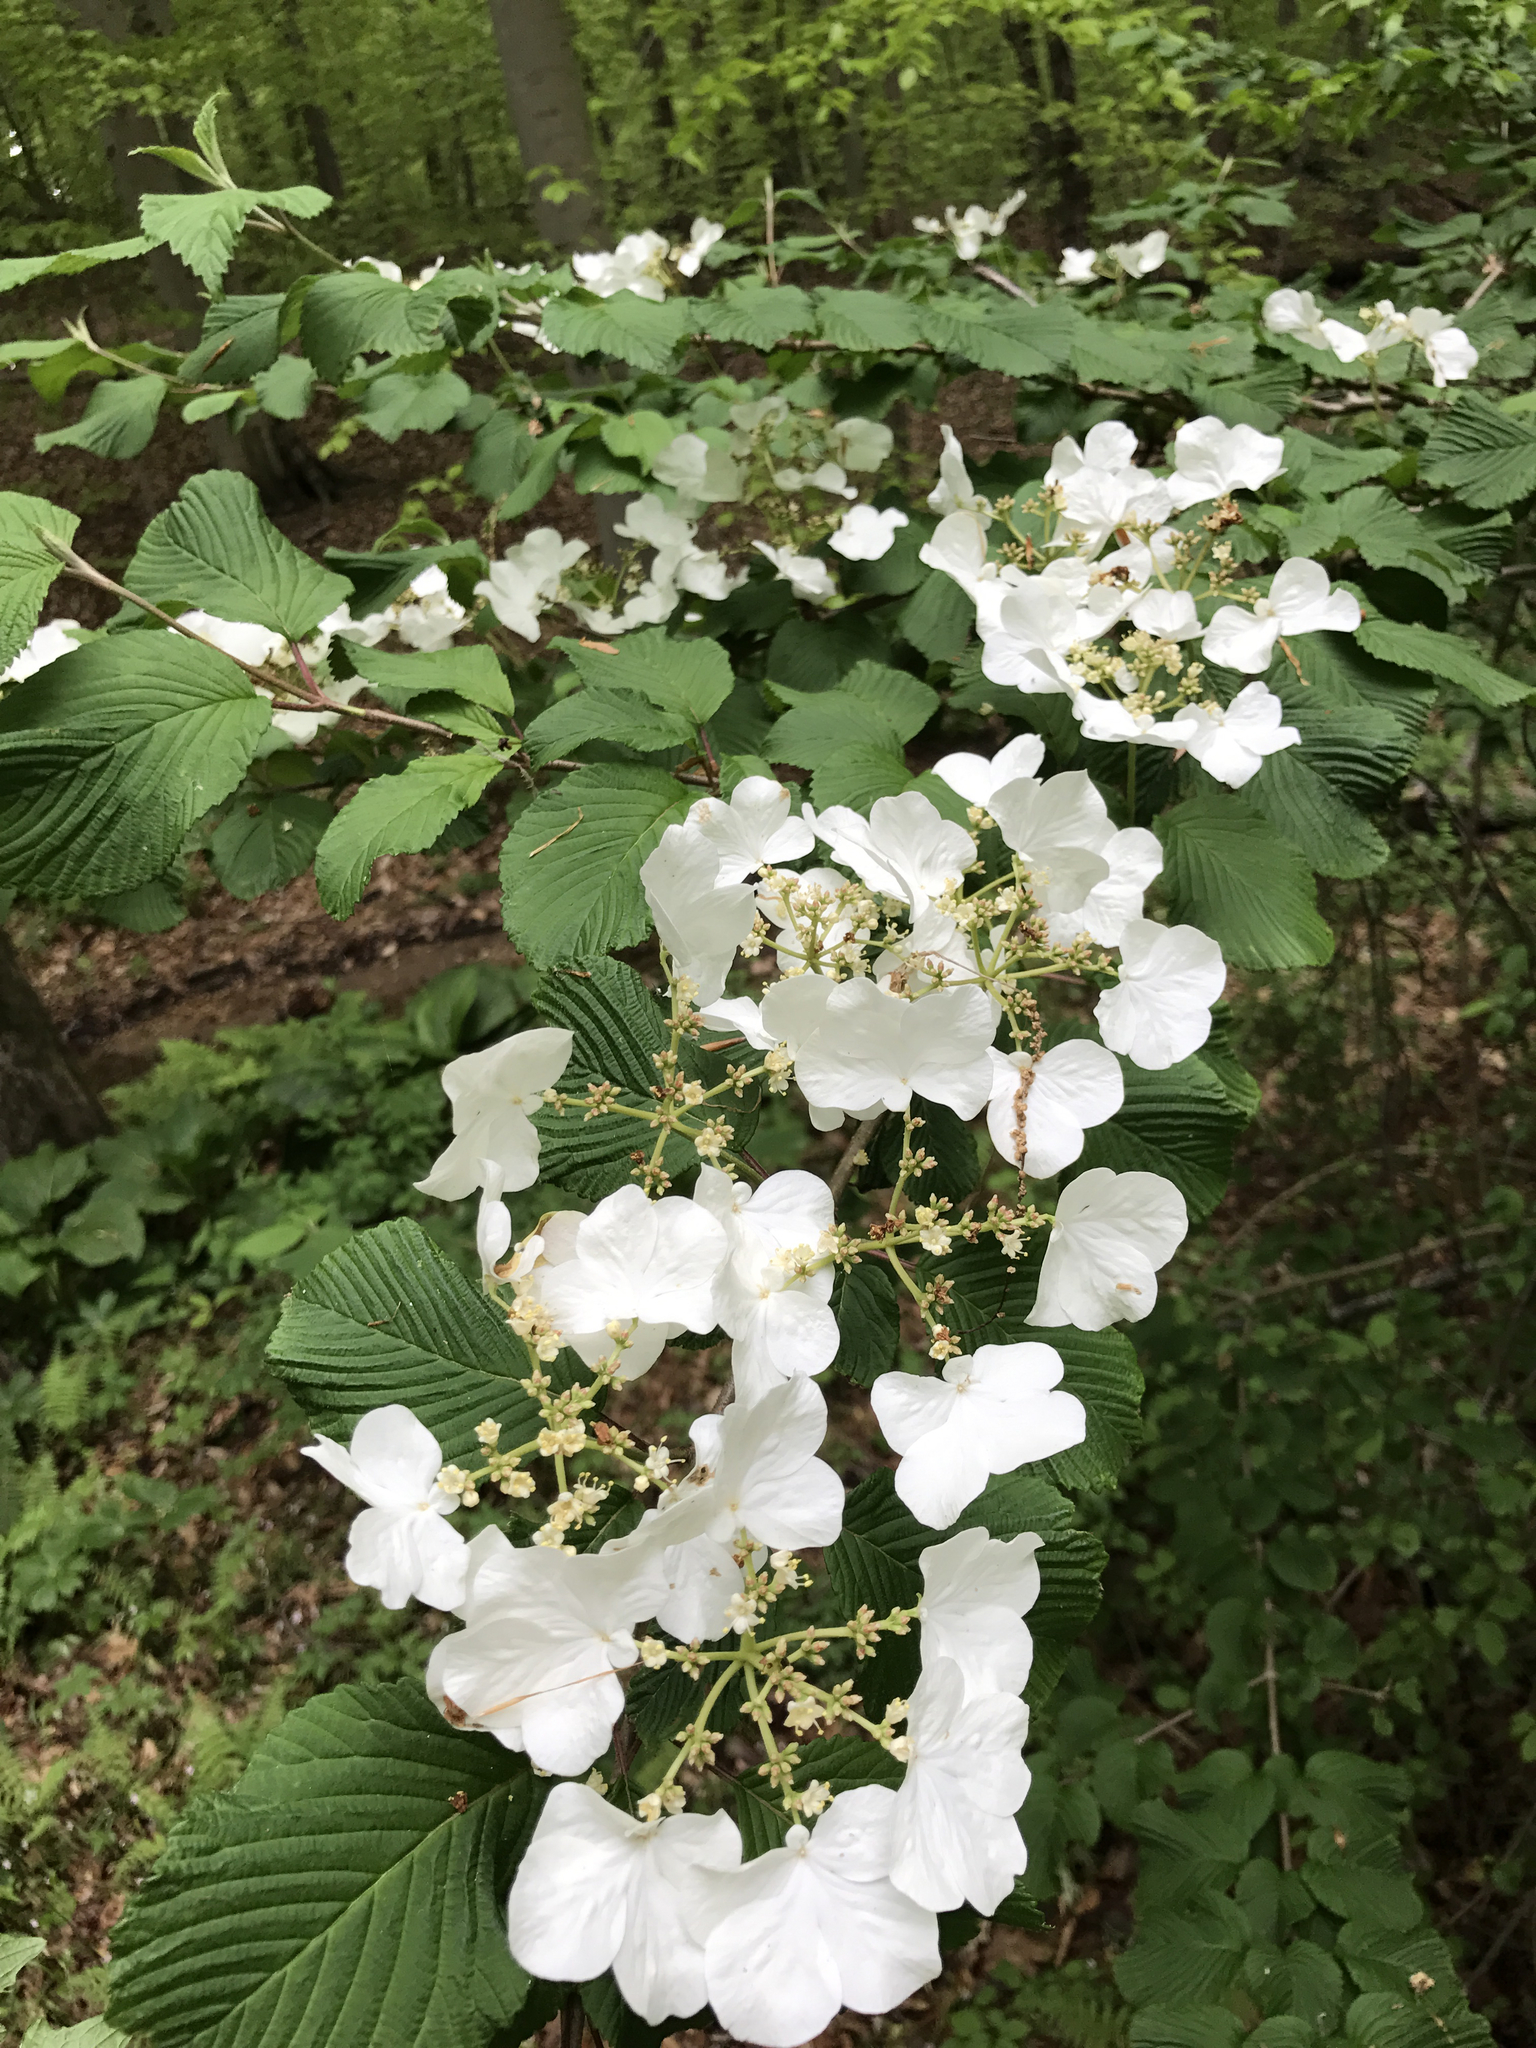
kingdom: Plantae
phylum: Tracheophyta
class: Magnoliopsida
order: Dipsacales
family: Viburnaceae
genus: Viburnum
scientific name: Viburnum plicatum
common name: Japanese snowball
